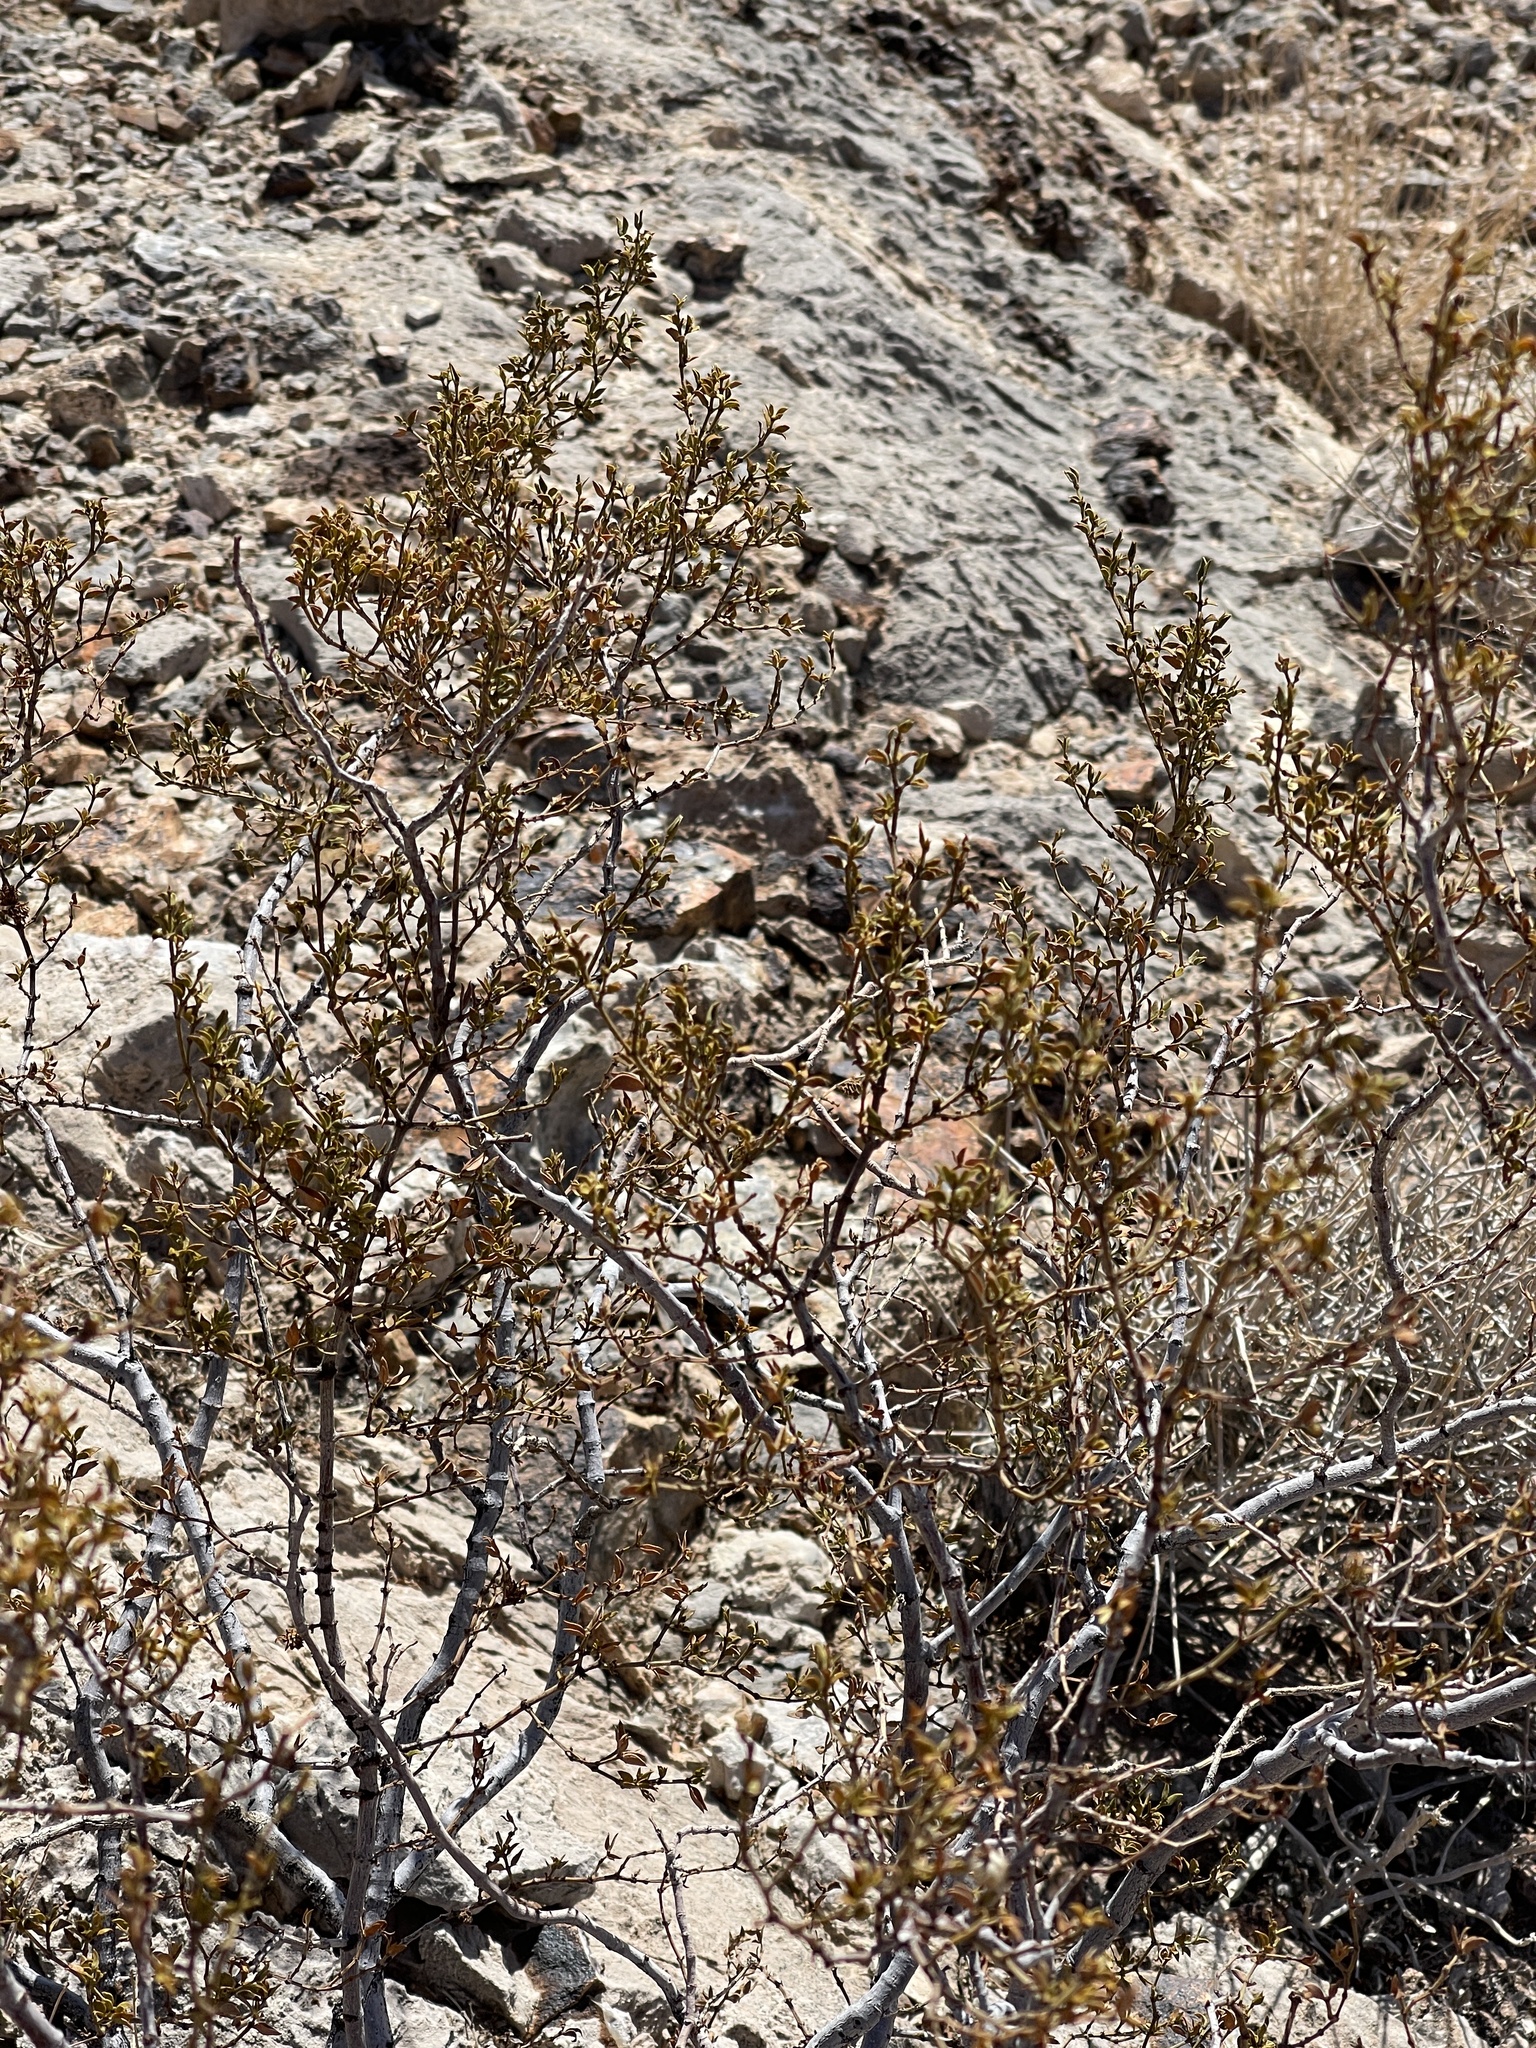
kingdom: Plantae
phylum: Tracheophyta
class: Magnoliopsida
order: Zygophyllales
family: Zygophyllaceae
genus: Larrea
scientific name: Larrea tridentata
